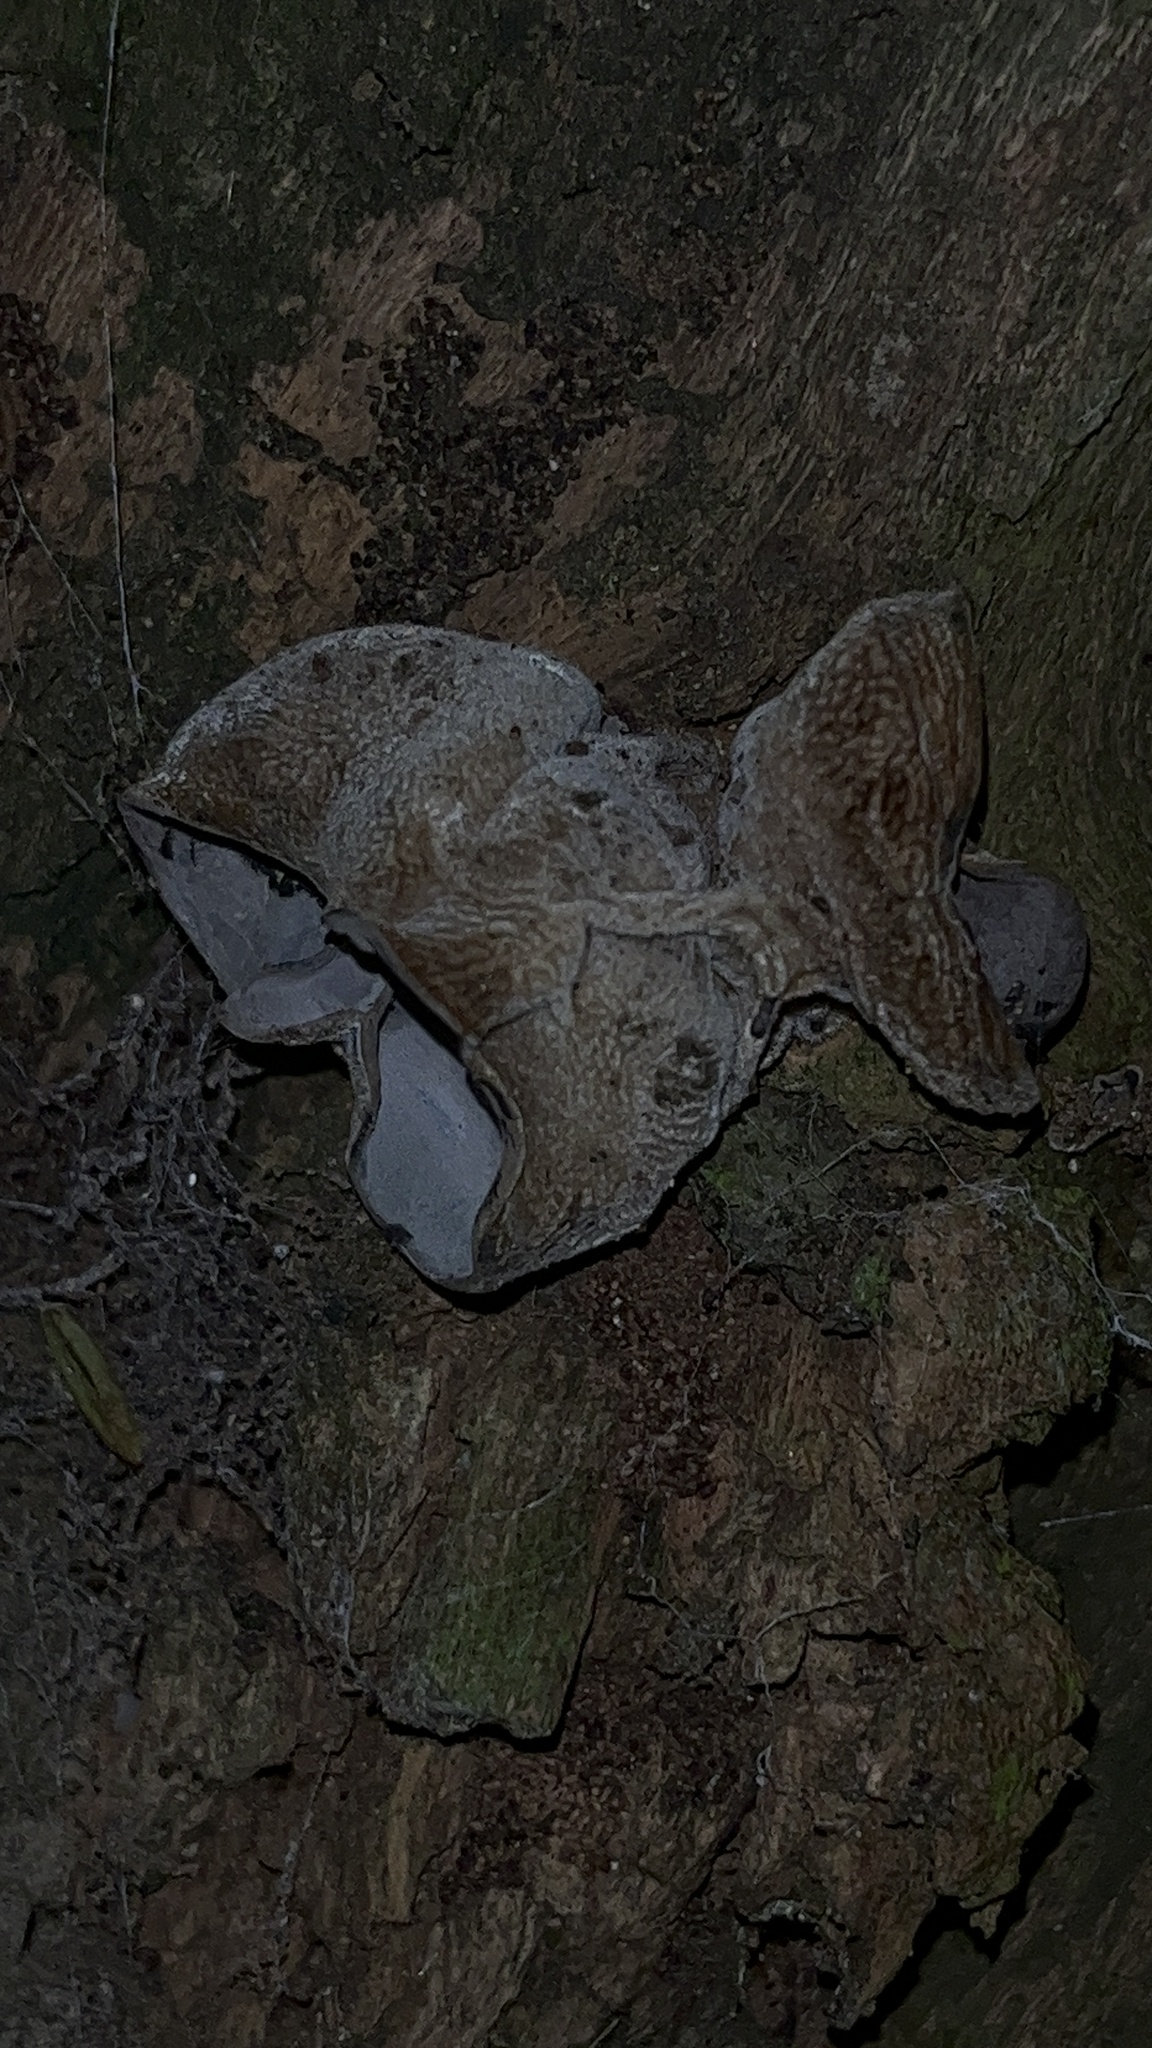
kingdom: Fungi
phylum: Basidiomycota
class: Agaricomycetes
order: Auriculariales
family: Auriculariaceae
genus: Auricularia
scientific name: Auricularia cornea
